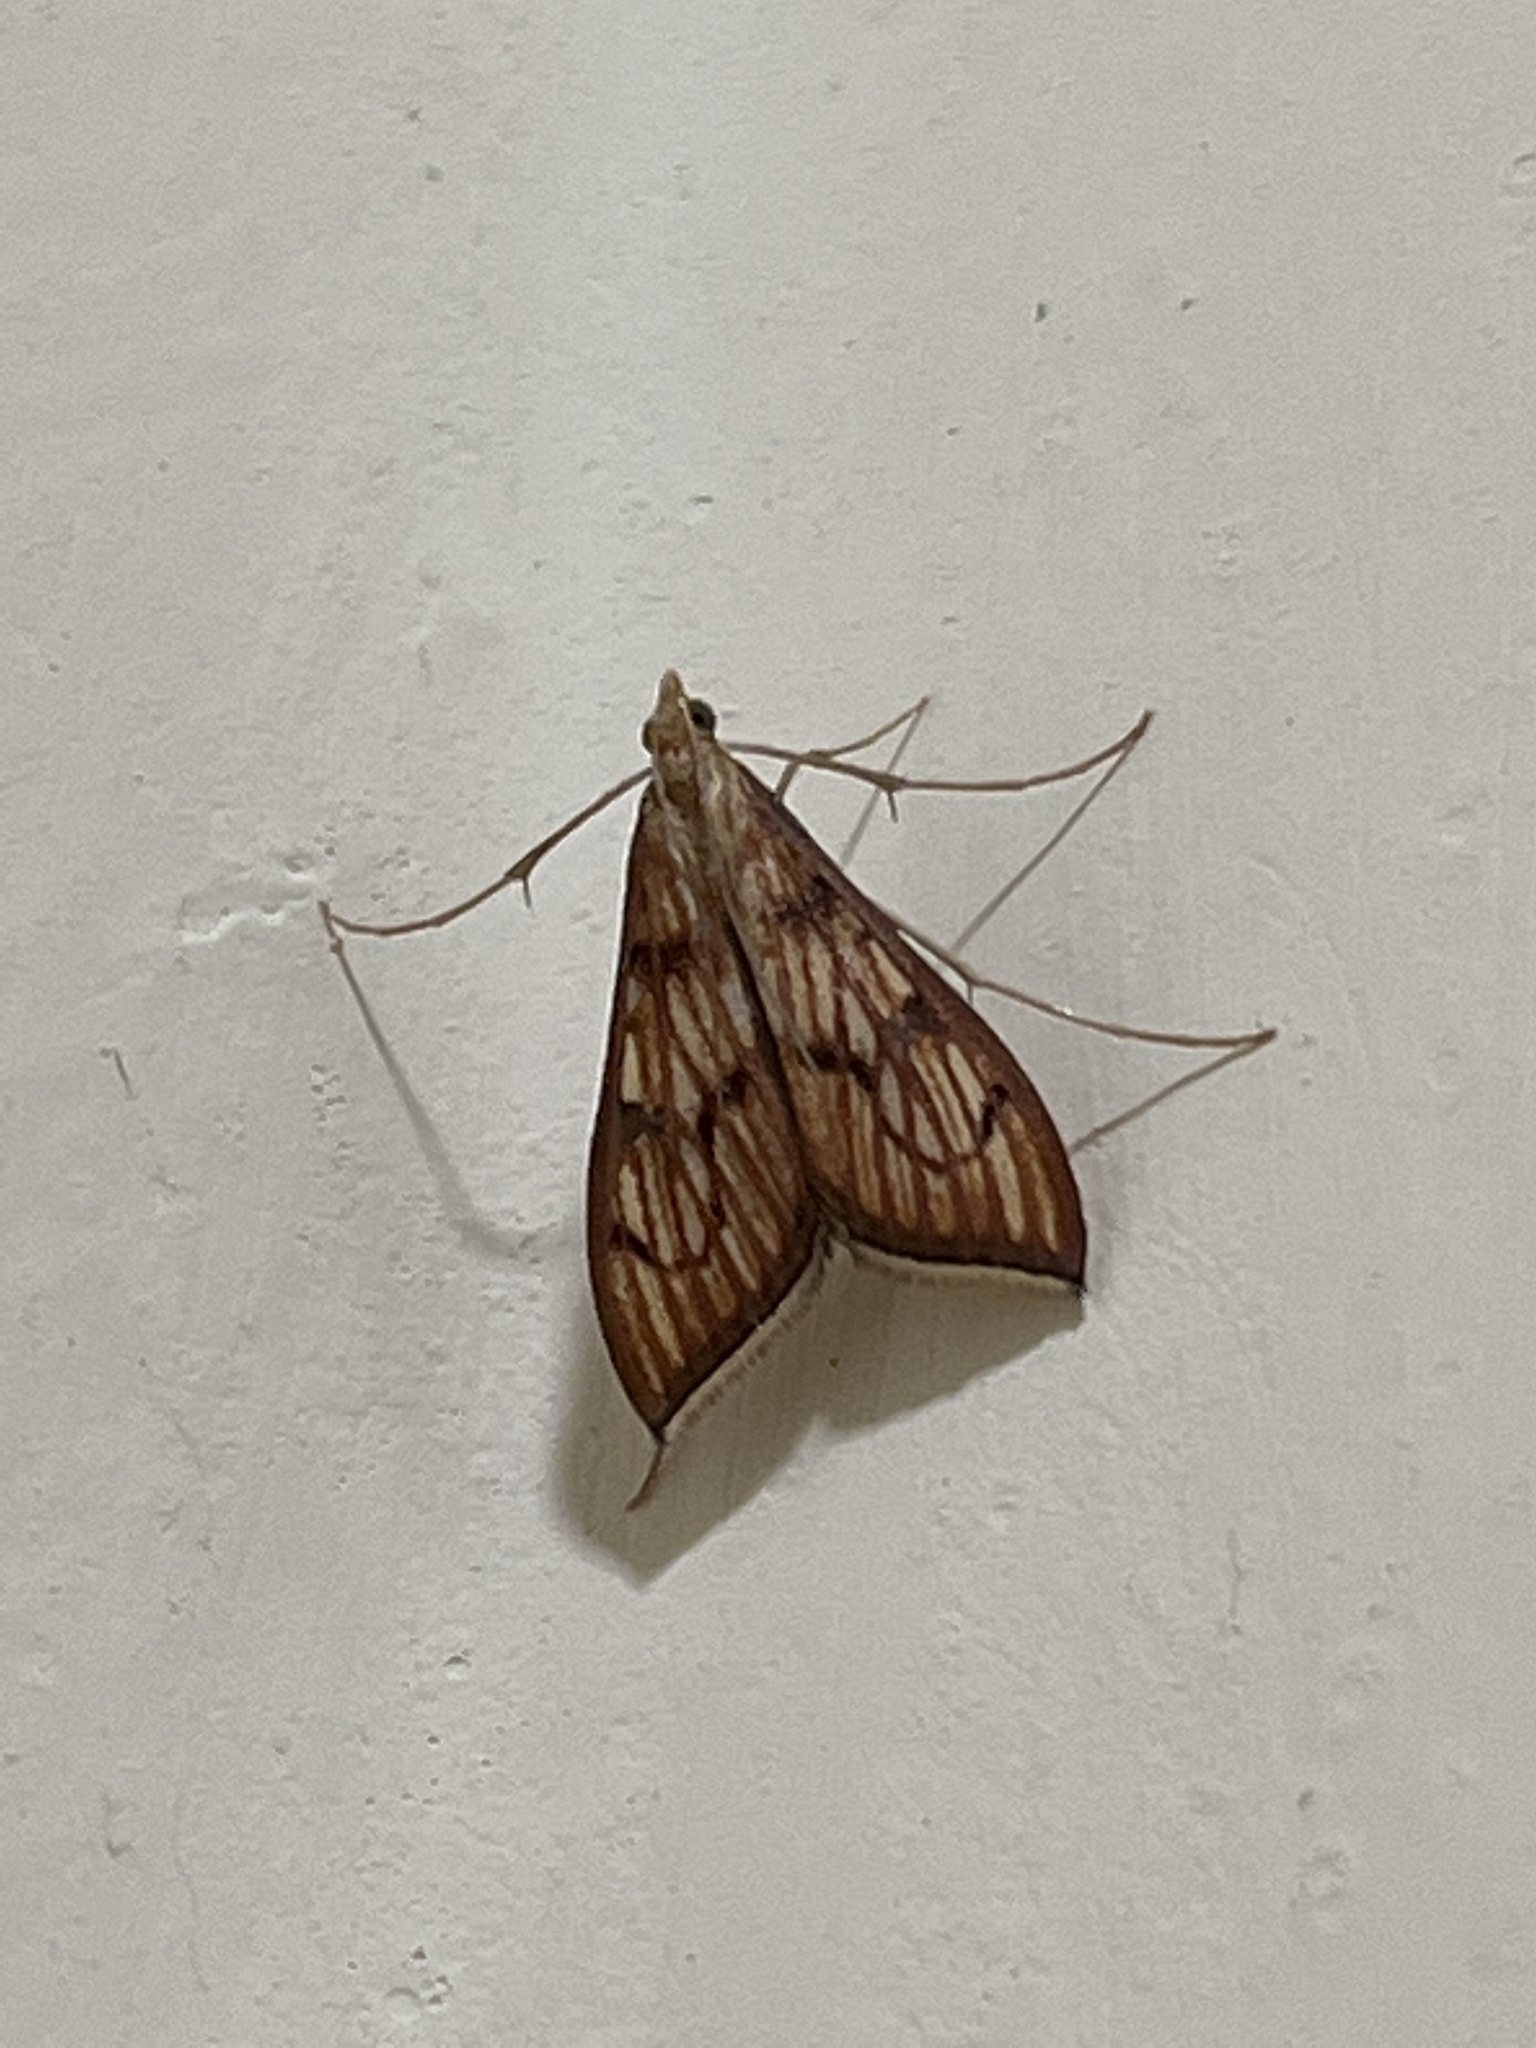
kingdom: Animalia
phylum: Arthropoda
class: Insecta
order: Lepidoptera
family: Crambidae
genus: Antigastra
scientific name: Antigastra catalaunalis
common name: Spanish dot
